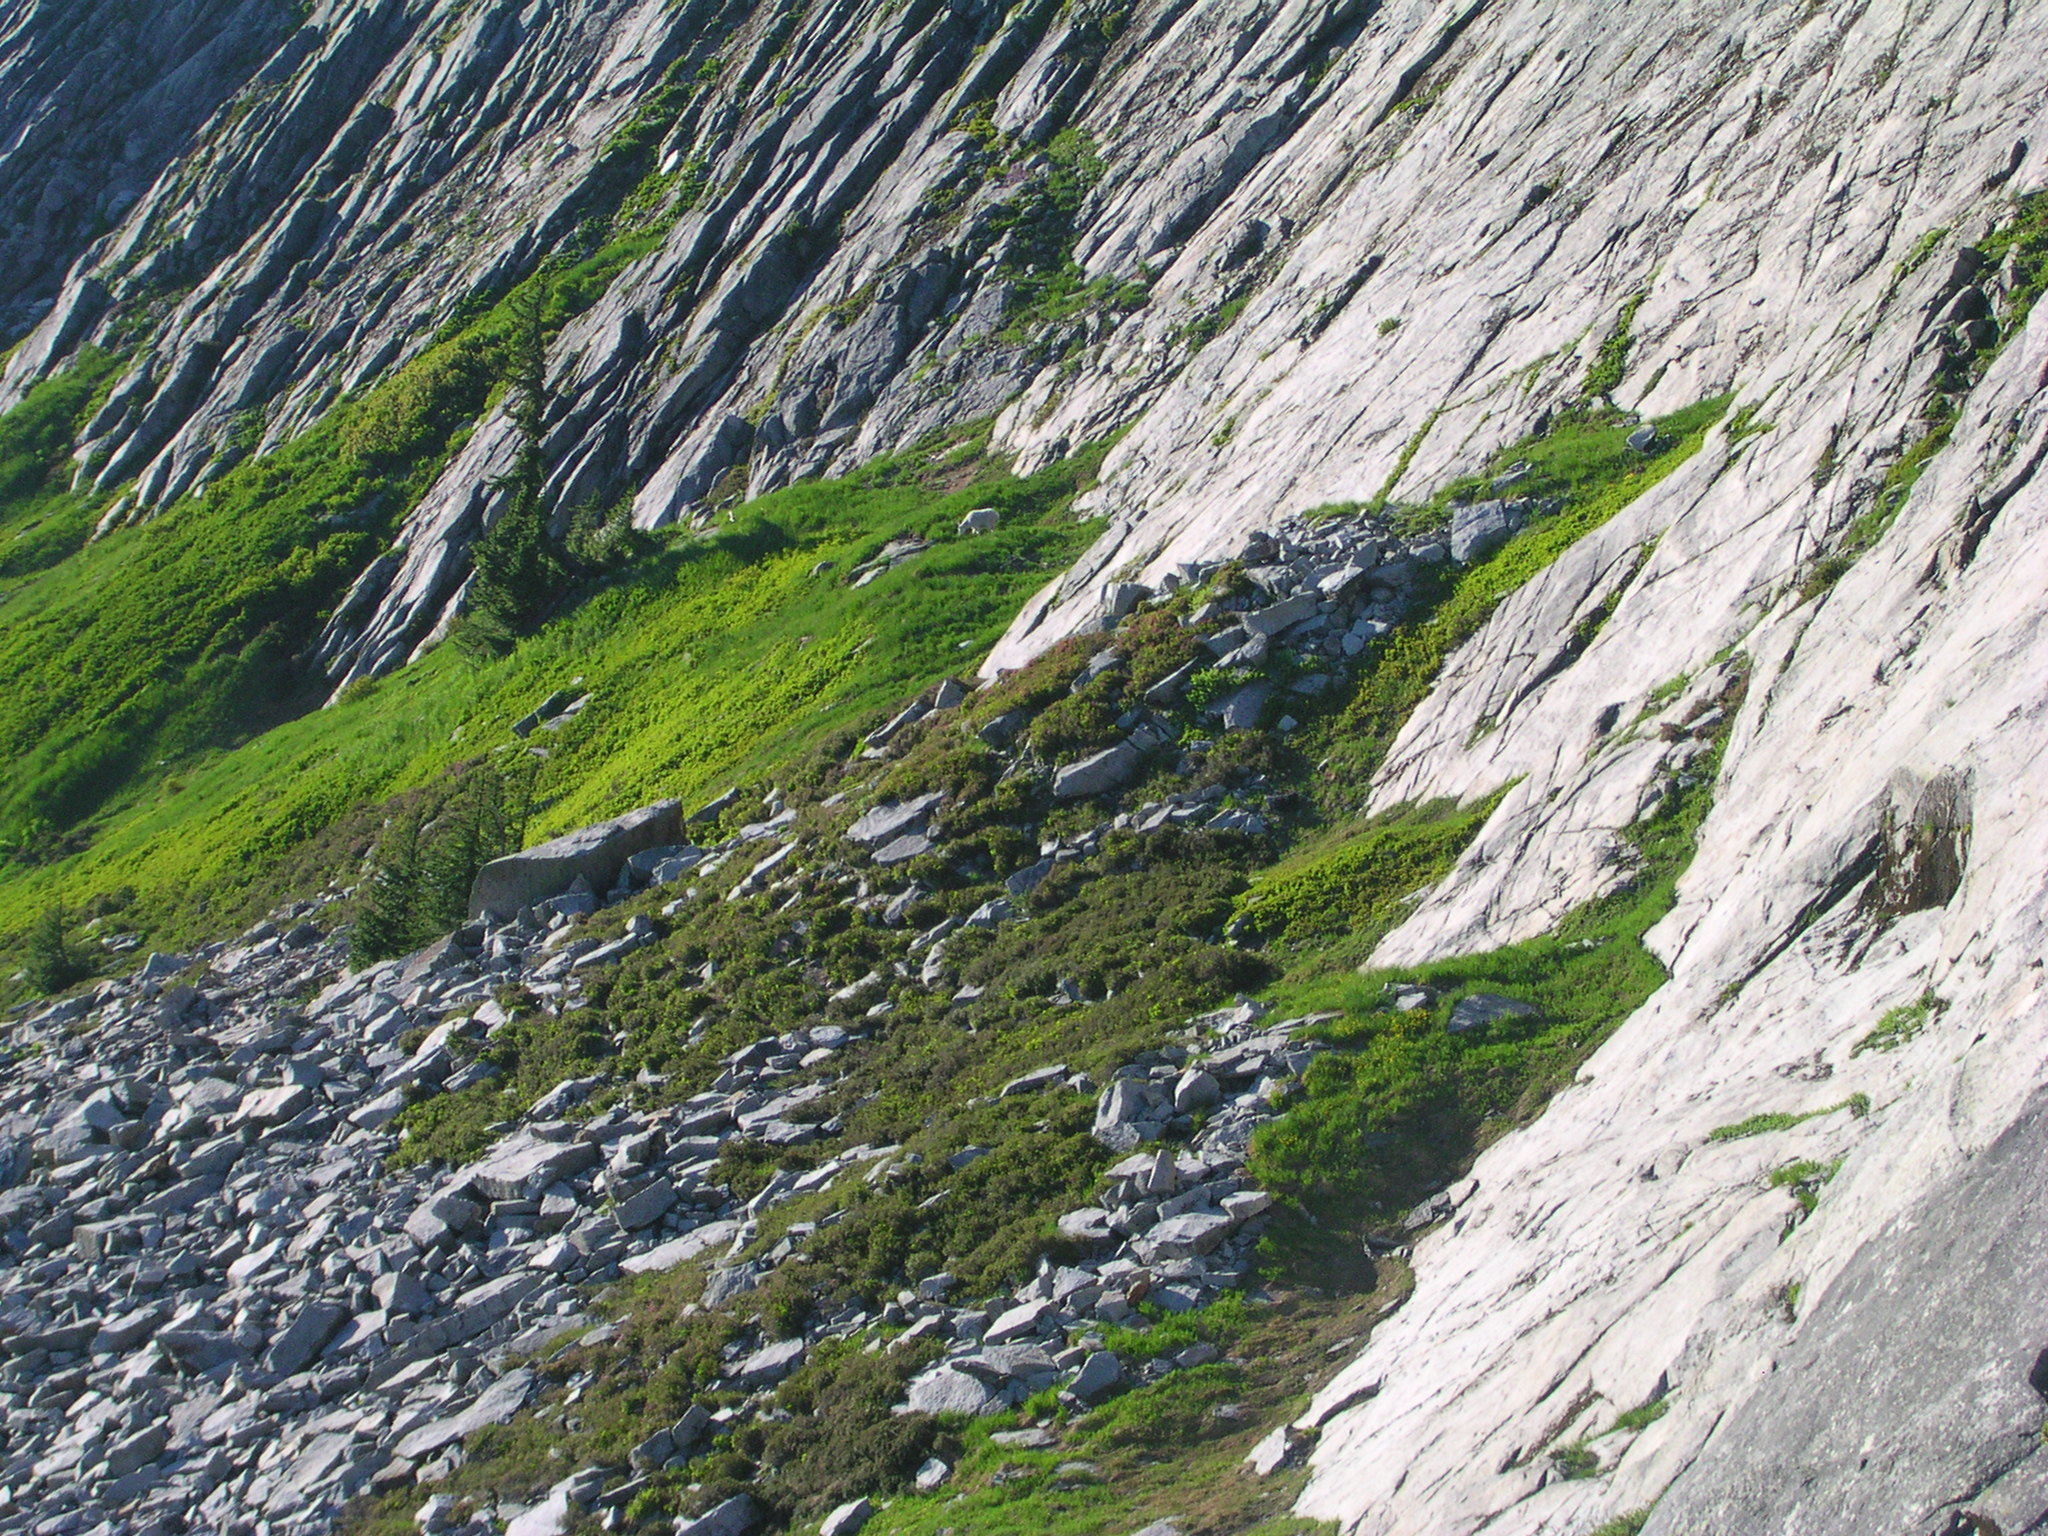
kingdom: Animalia
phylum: Chordata
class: Mammalia
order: Artiodactyla
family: Bovidae
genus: Oreamnos
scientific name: Oreamnos americanus
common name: Mountain goat
